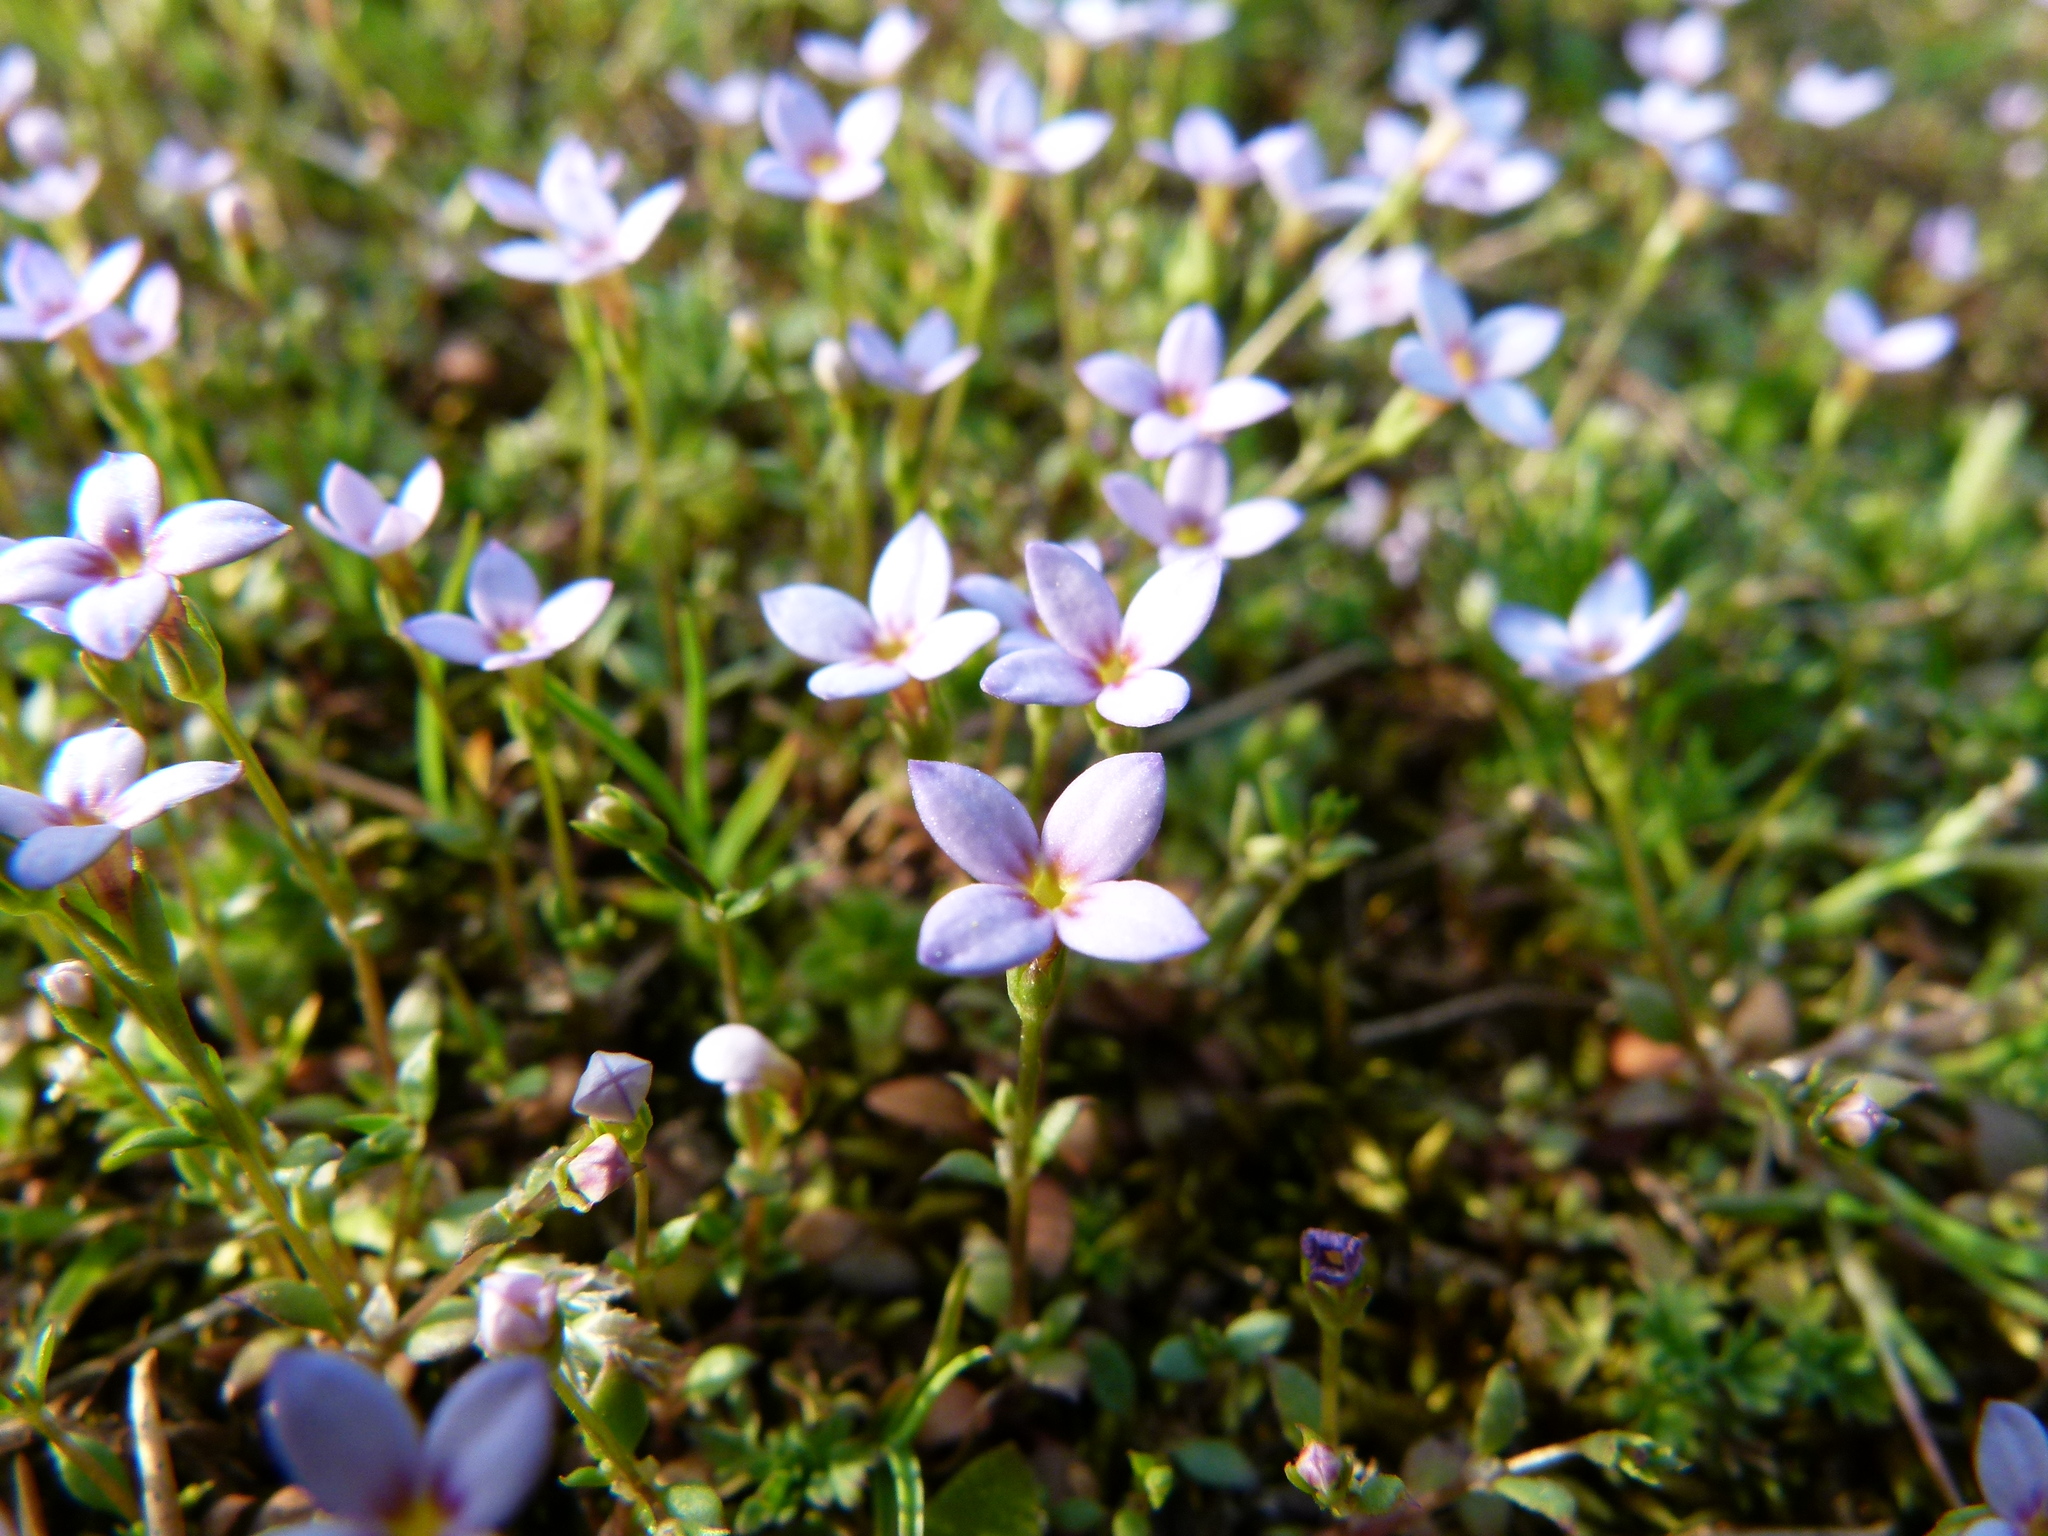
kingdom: Plantae
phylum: Tracheophyta
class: Magnoliopsida
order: Gentianales
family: Rubiaceae
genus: Houstonia
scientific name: Houstonia pusilla
